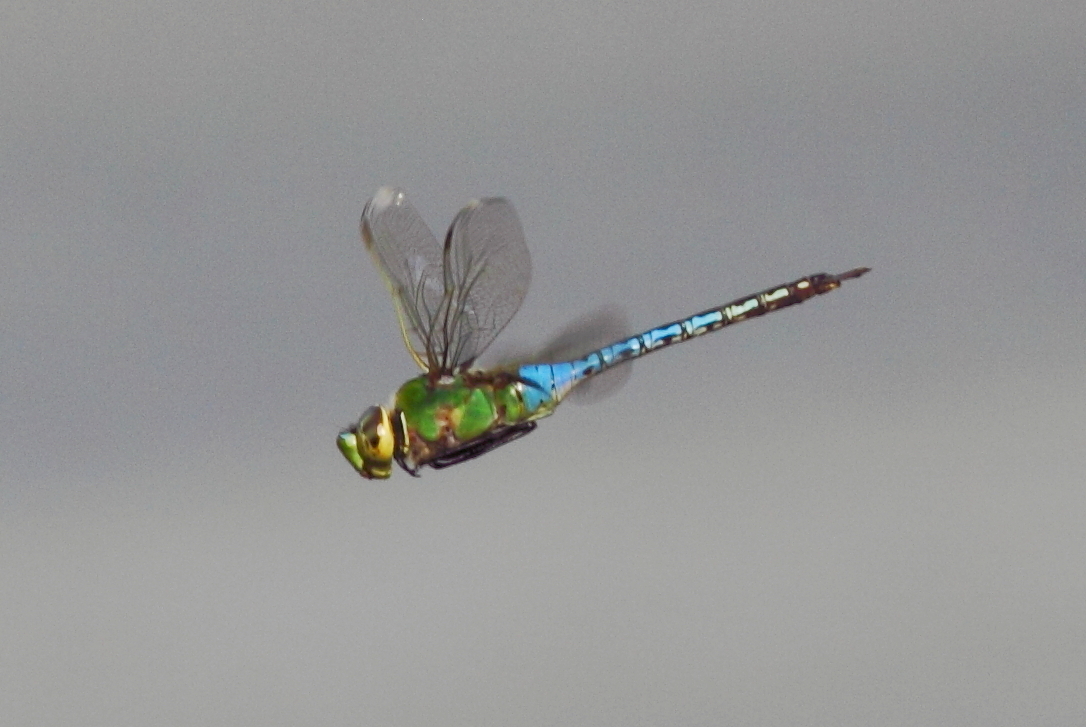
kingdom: Animalia
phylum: Arthropoda
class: Insecta
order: Odonata
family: Aeshnidae
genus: Anax
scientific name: Anax junius
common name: Common green darner
